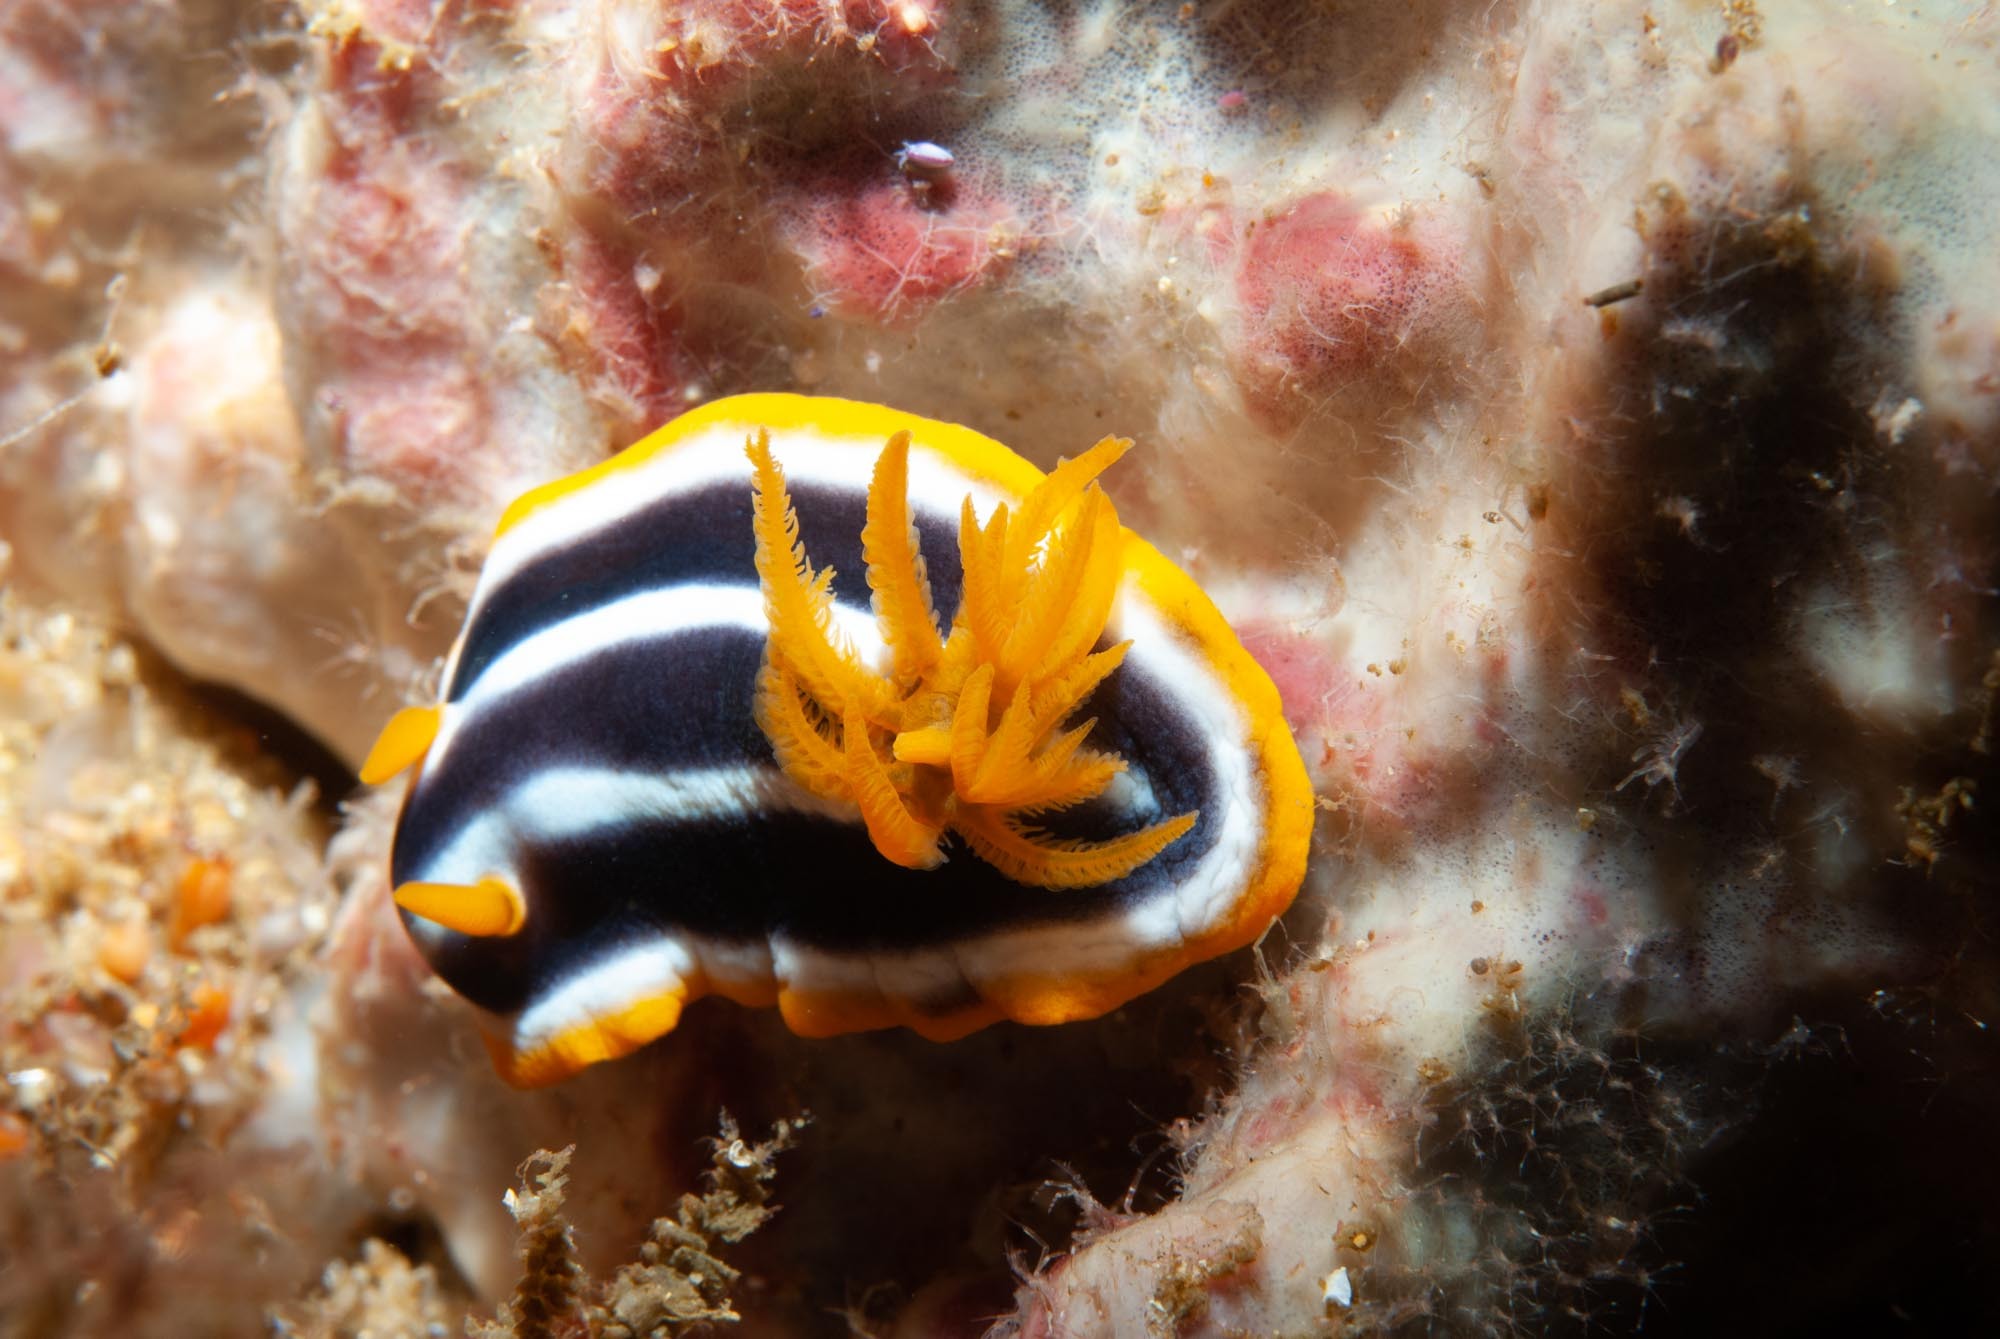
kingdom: Animalia
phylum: Mollusca
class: Gastropoda
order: Nudibranchia
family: Chromodorididae
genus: Chromodoris
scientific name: Chromodoris africana
